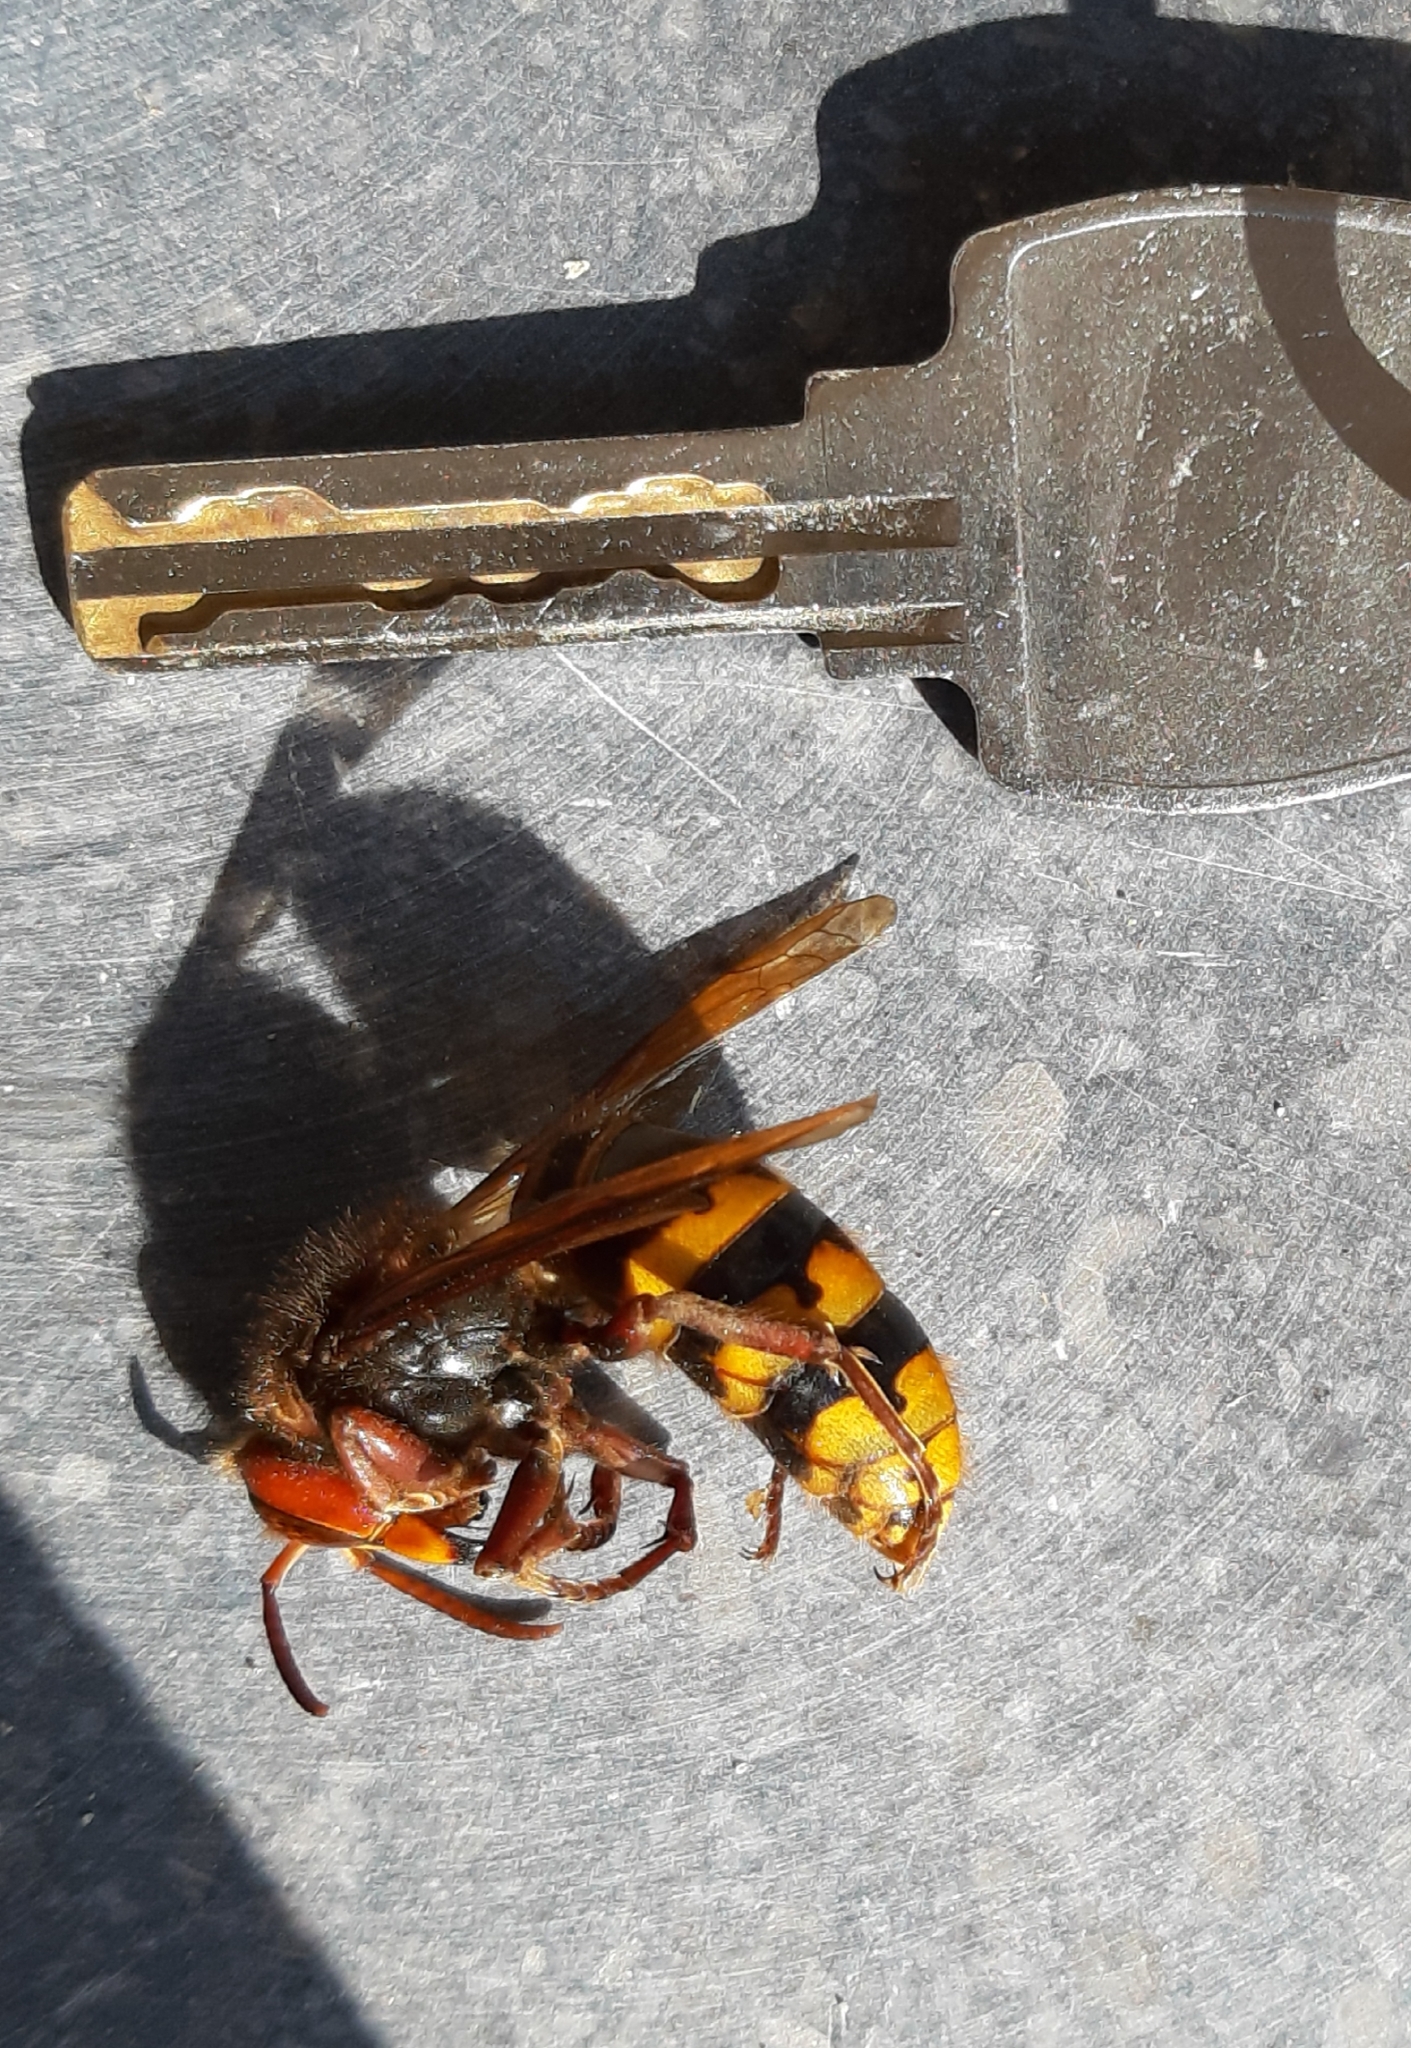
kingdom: Animalia
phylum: Arthropoda
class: Insecta
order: Hymenoptera
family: Vespidae
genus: Vespa
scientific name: Vespa crabro
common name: Hornet
